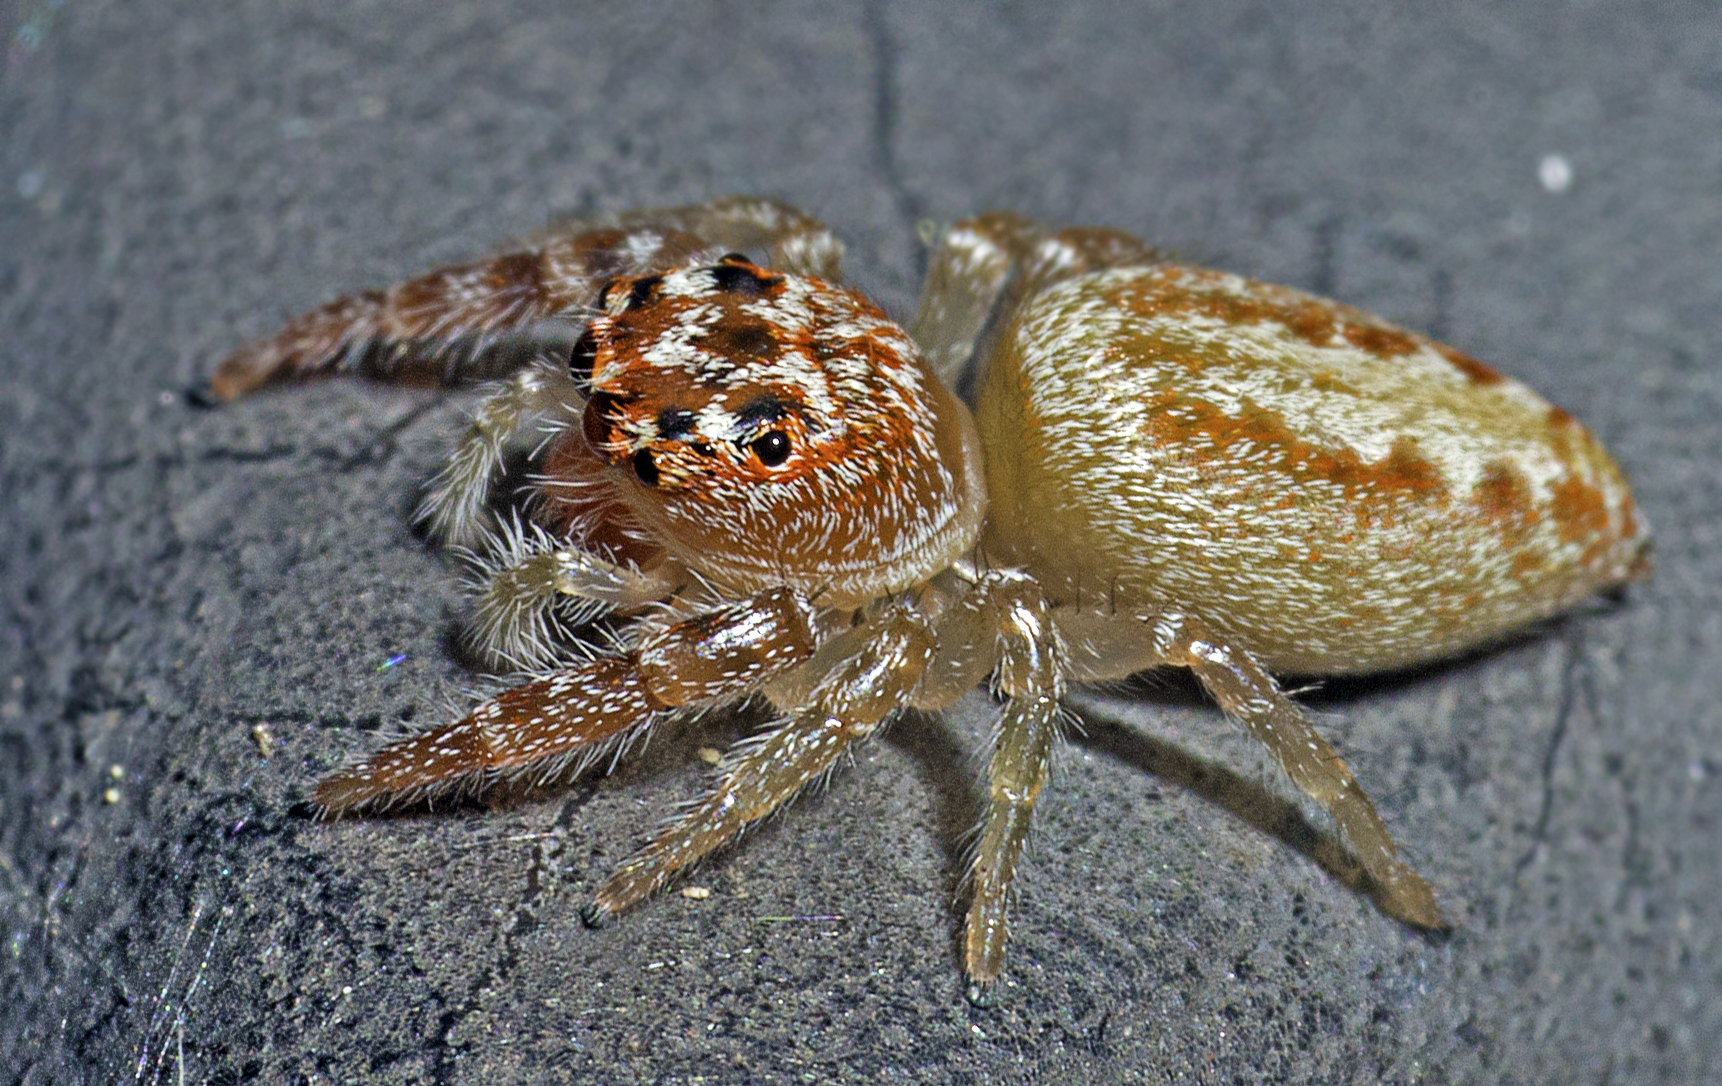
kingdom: Animalia
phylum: Arthropoda
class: Arachnida
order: Araneae
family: Salticidae
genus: Opisthoncus
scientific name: Opisthoncus alborufescens
